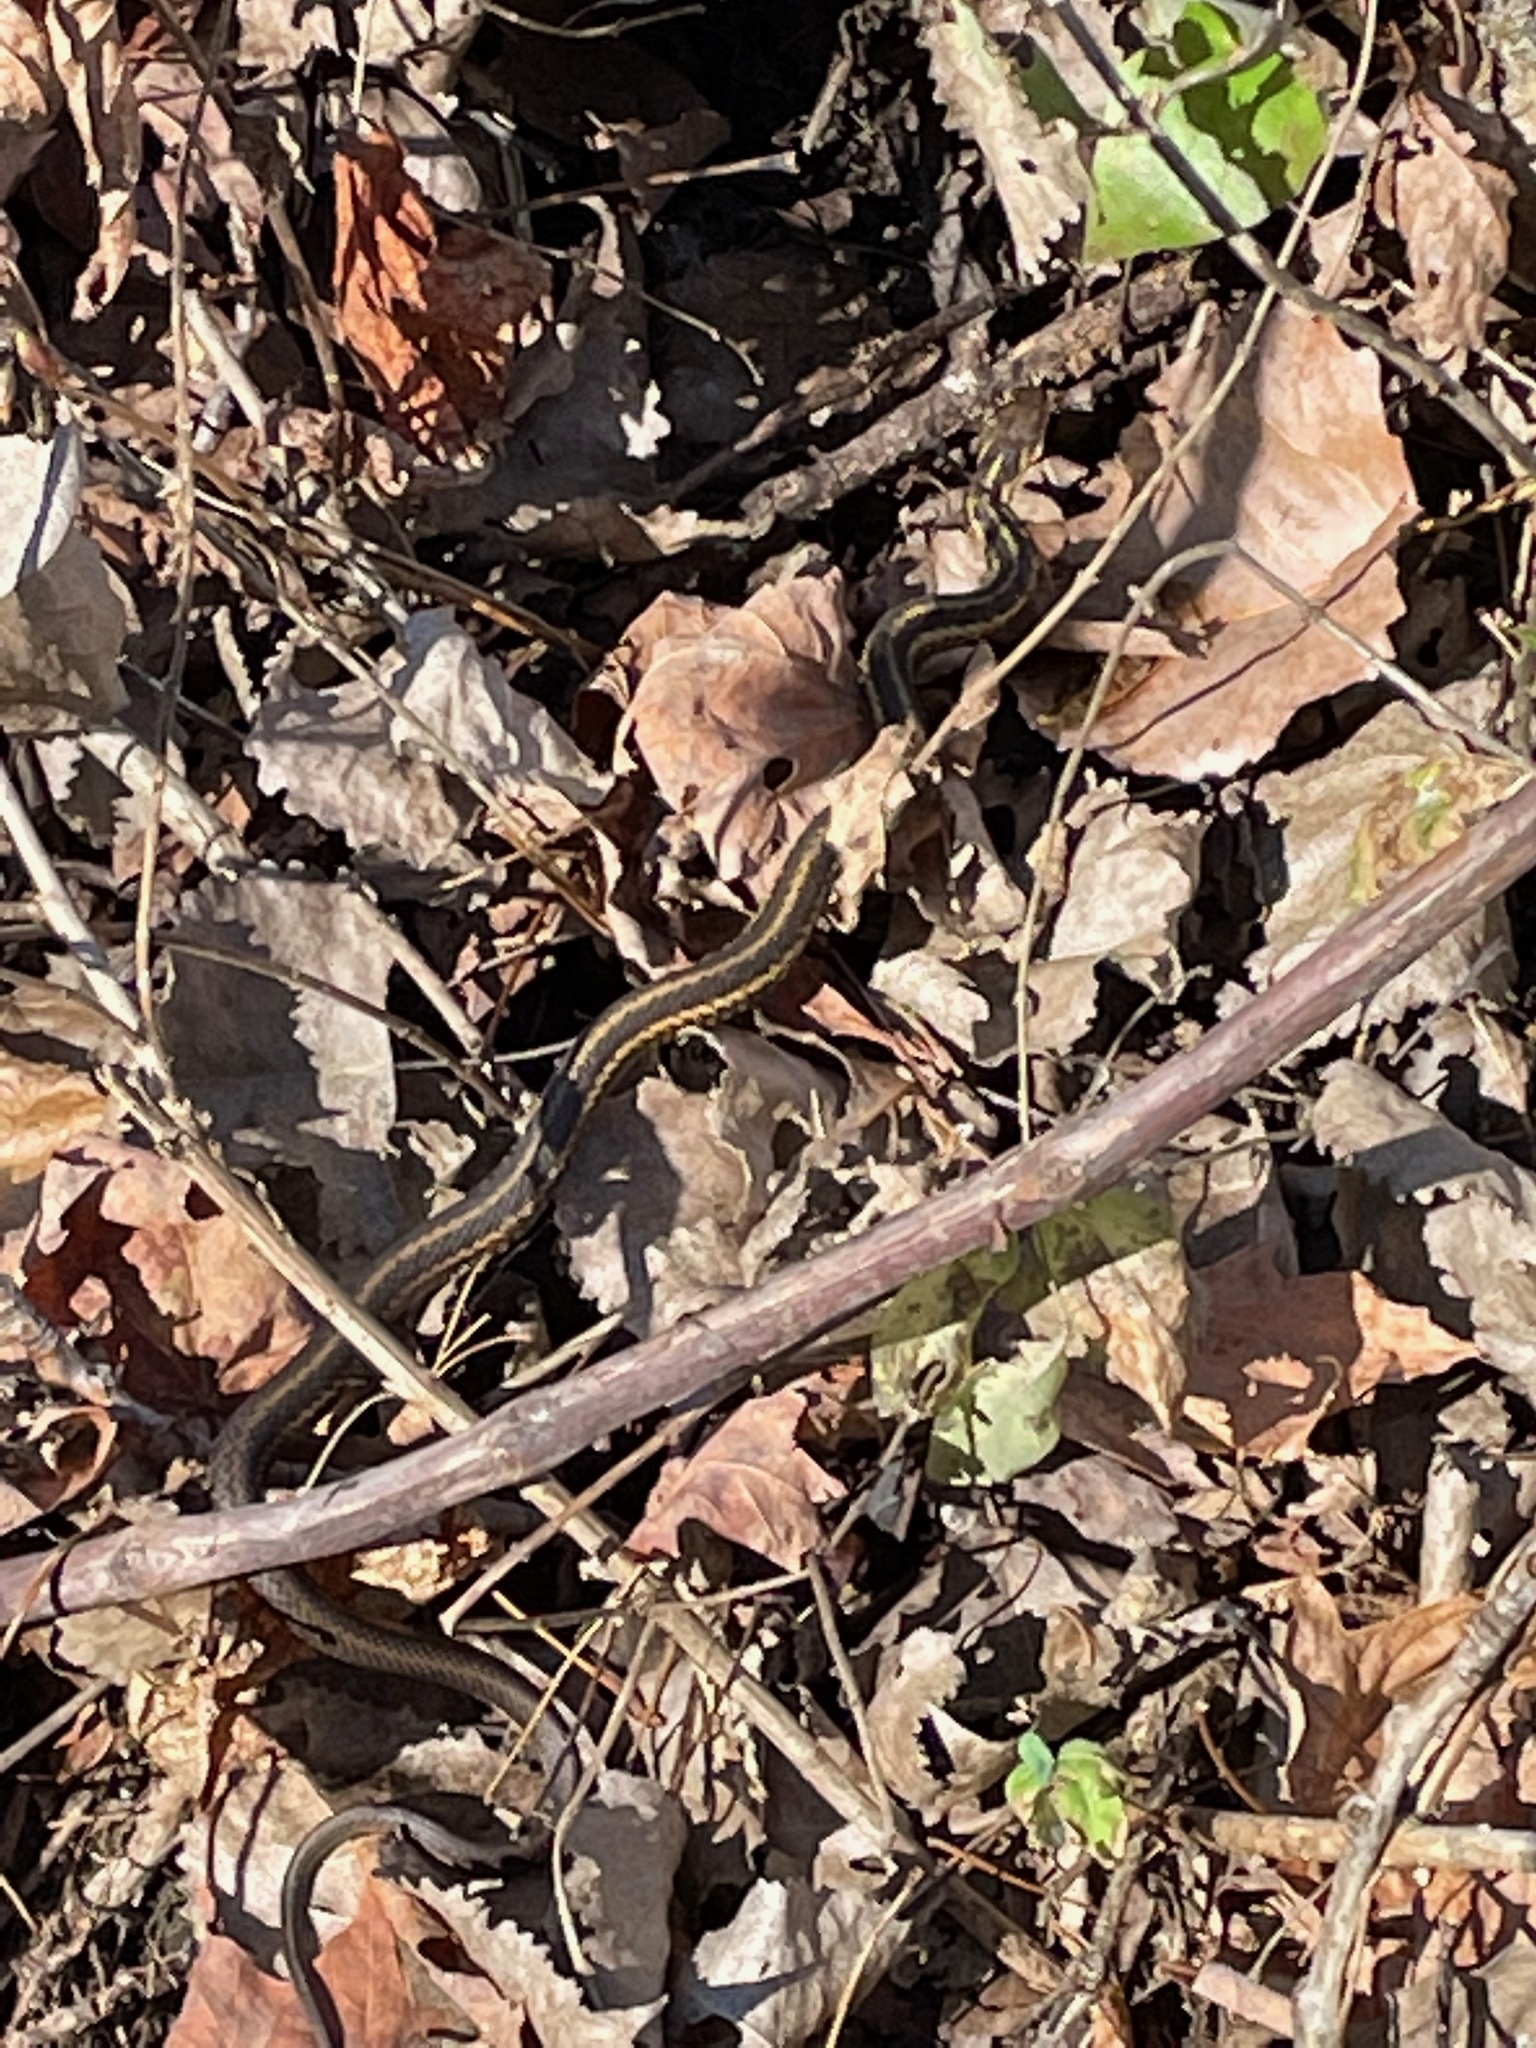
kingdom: Animalia
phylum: Chordata
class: Squamata
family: Colubridae
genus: Thamnophis
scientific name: Thamnophis sirtalis
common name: Common garter snake
